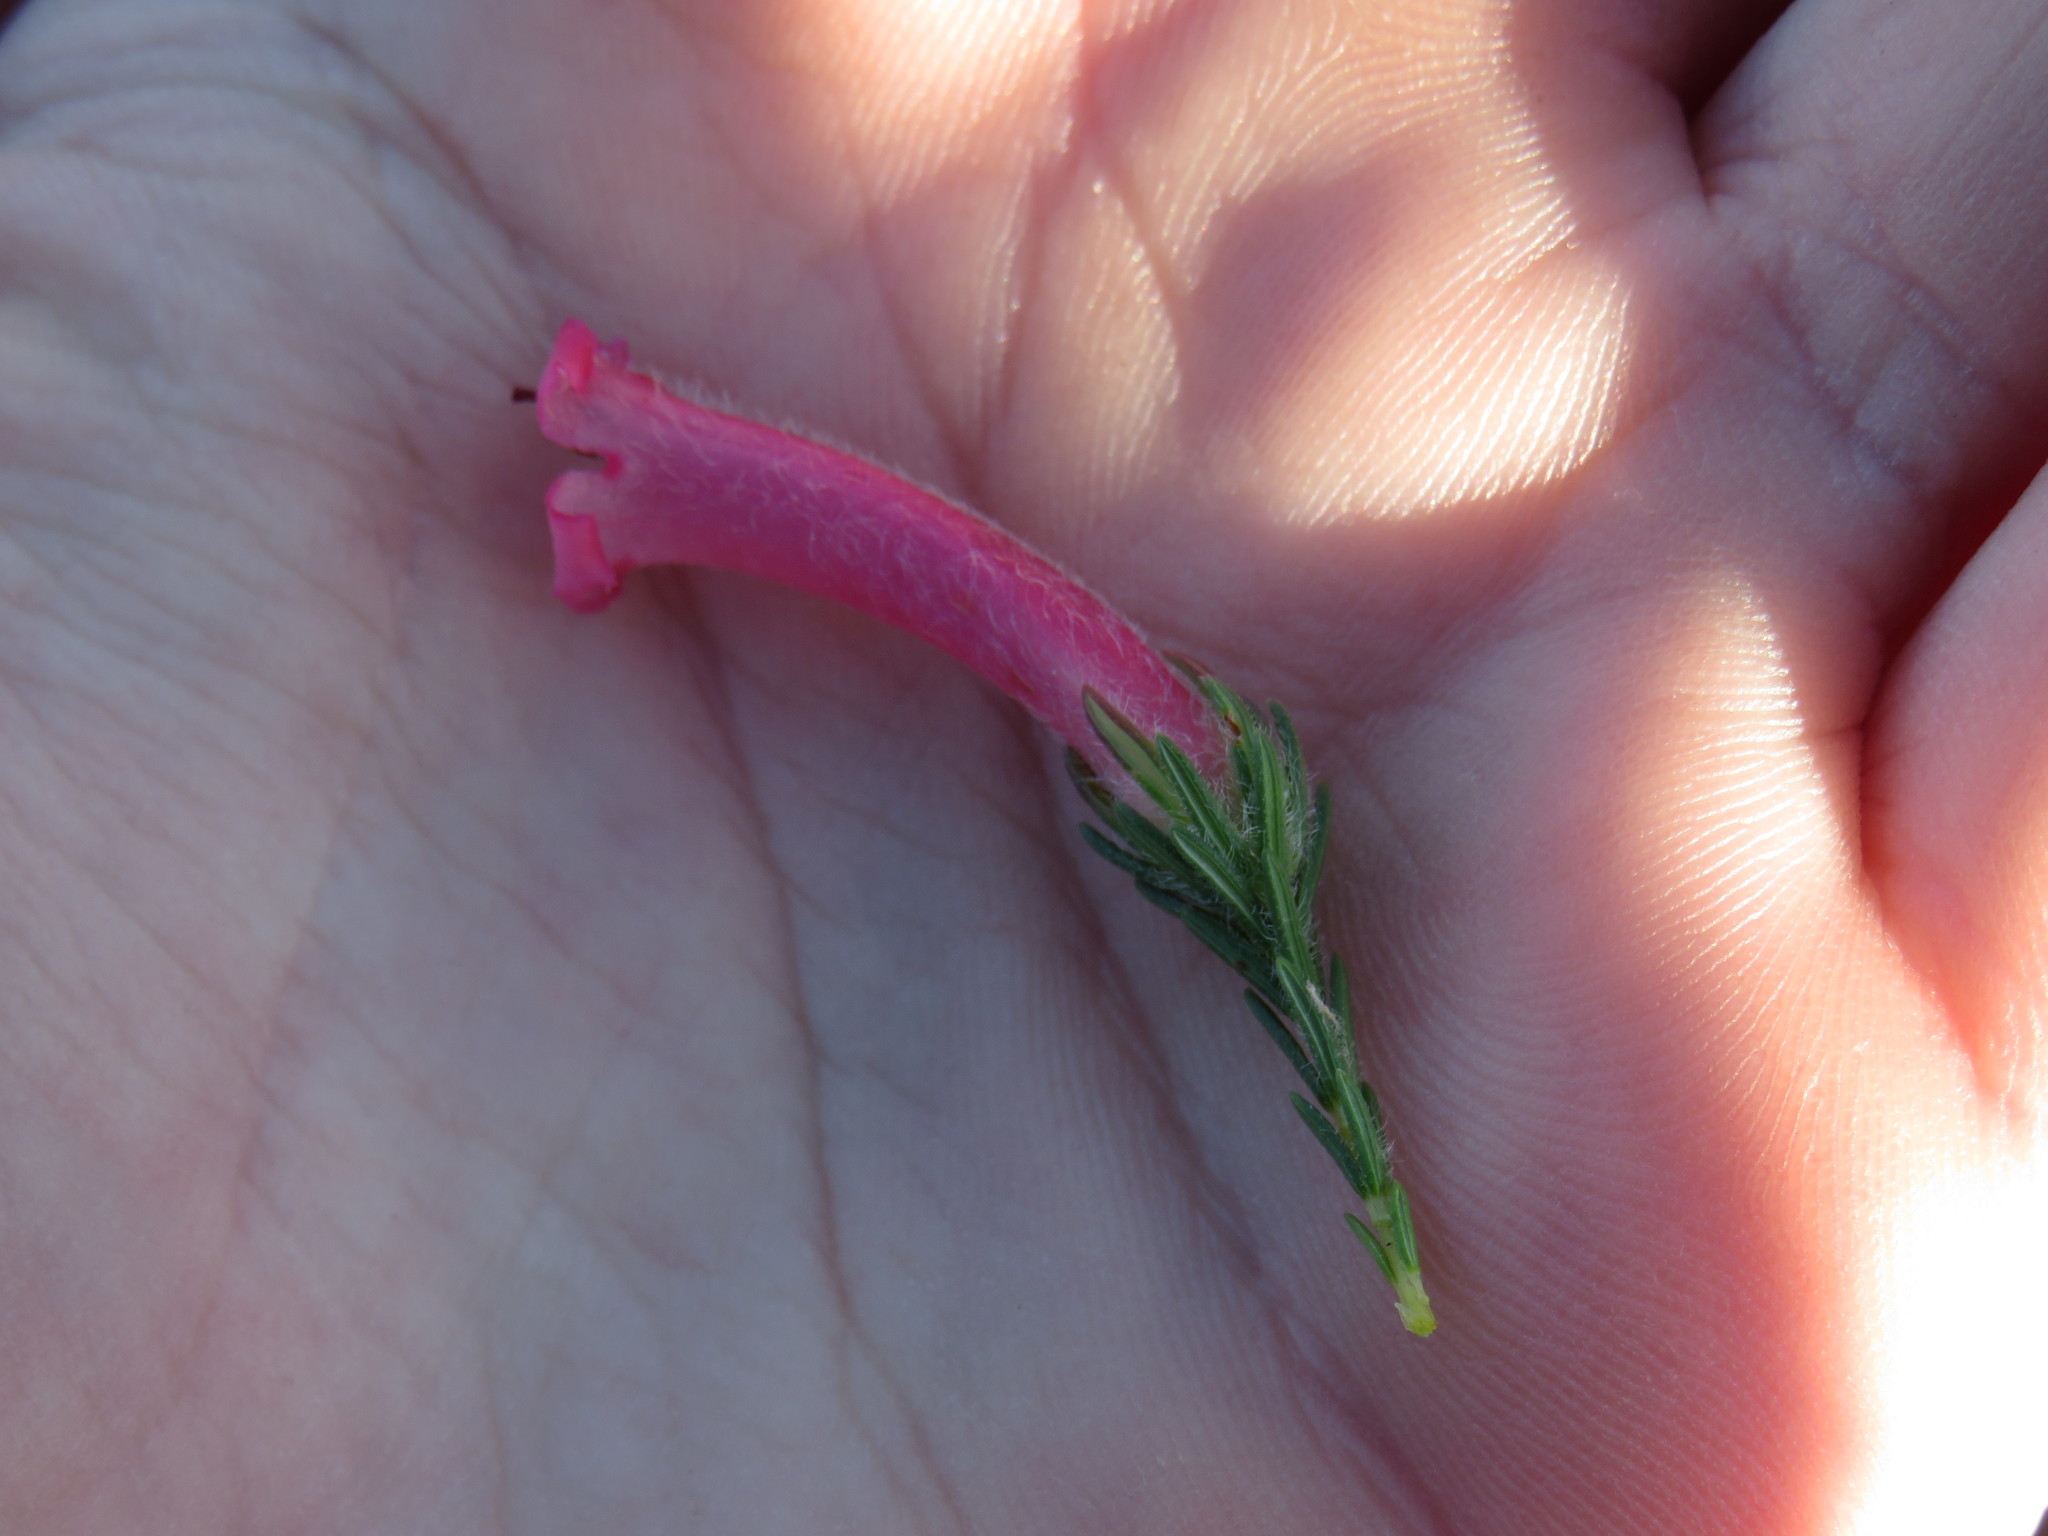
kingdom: Plantae
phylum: Tracheophyta
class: Magnoliopsida
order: Ericales
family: Ericaceae
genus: Erica
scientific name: Erica curviflora
